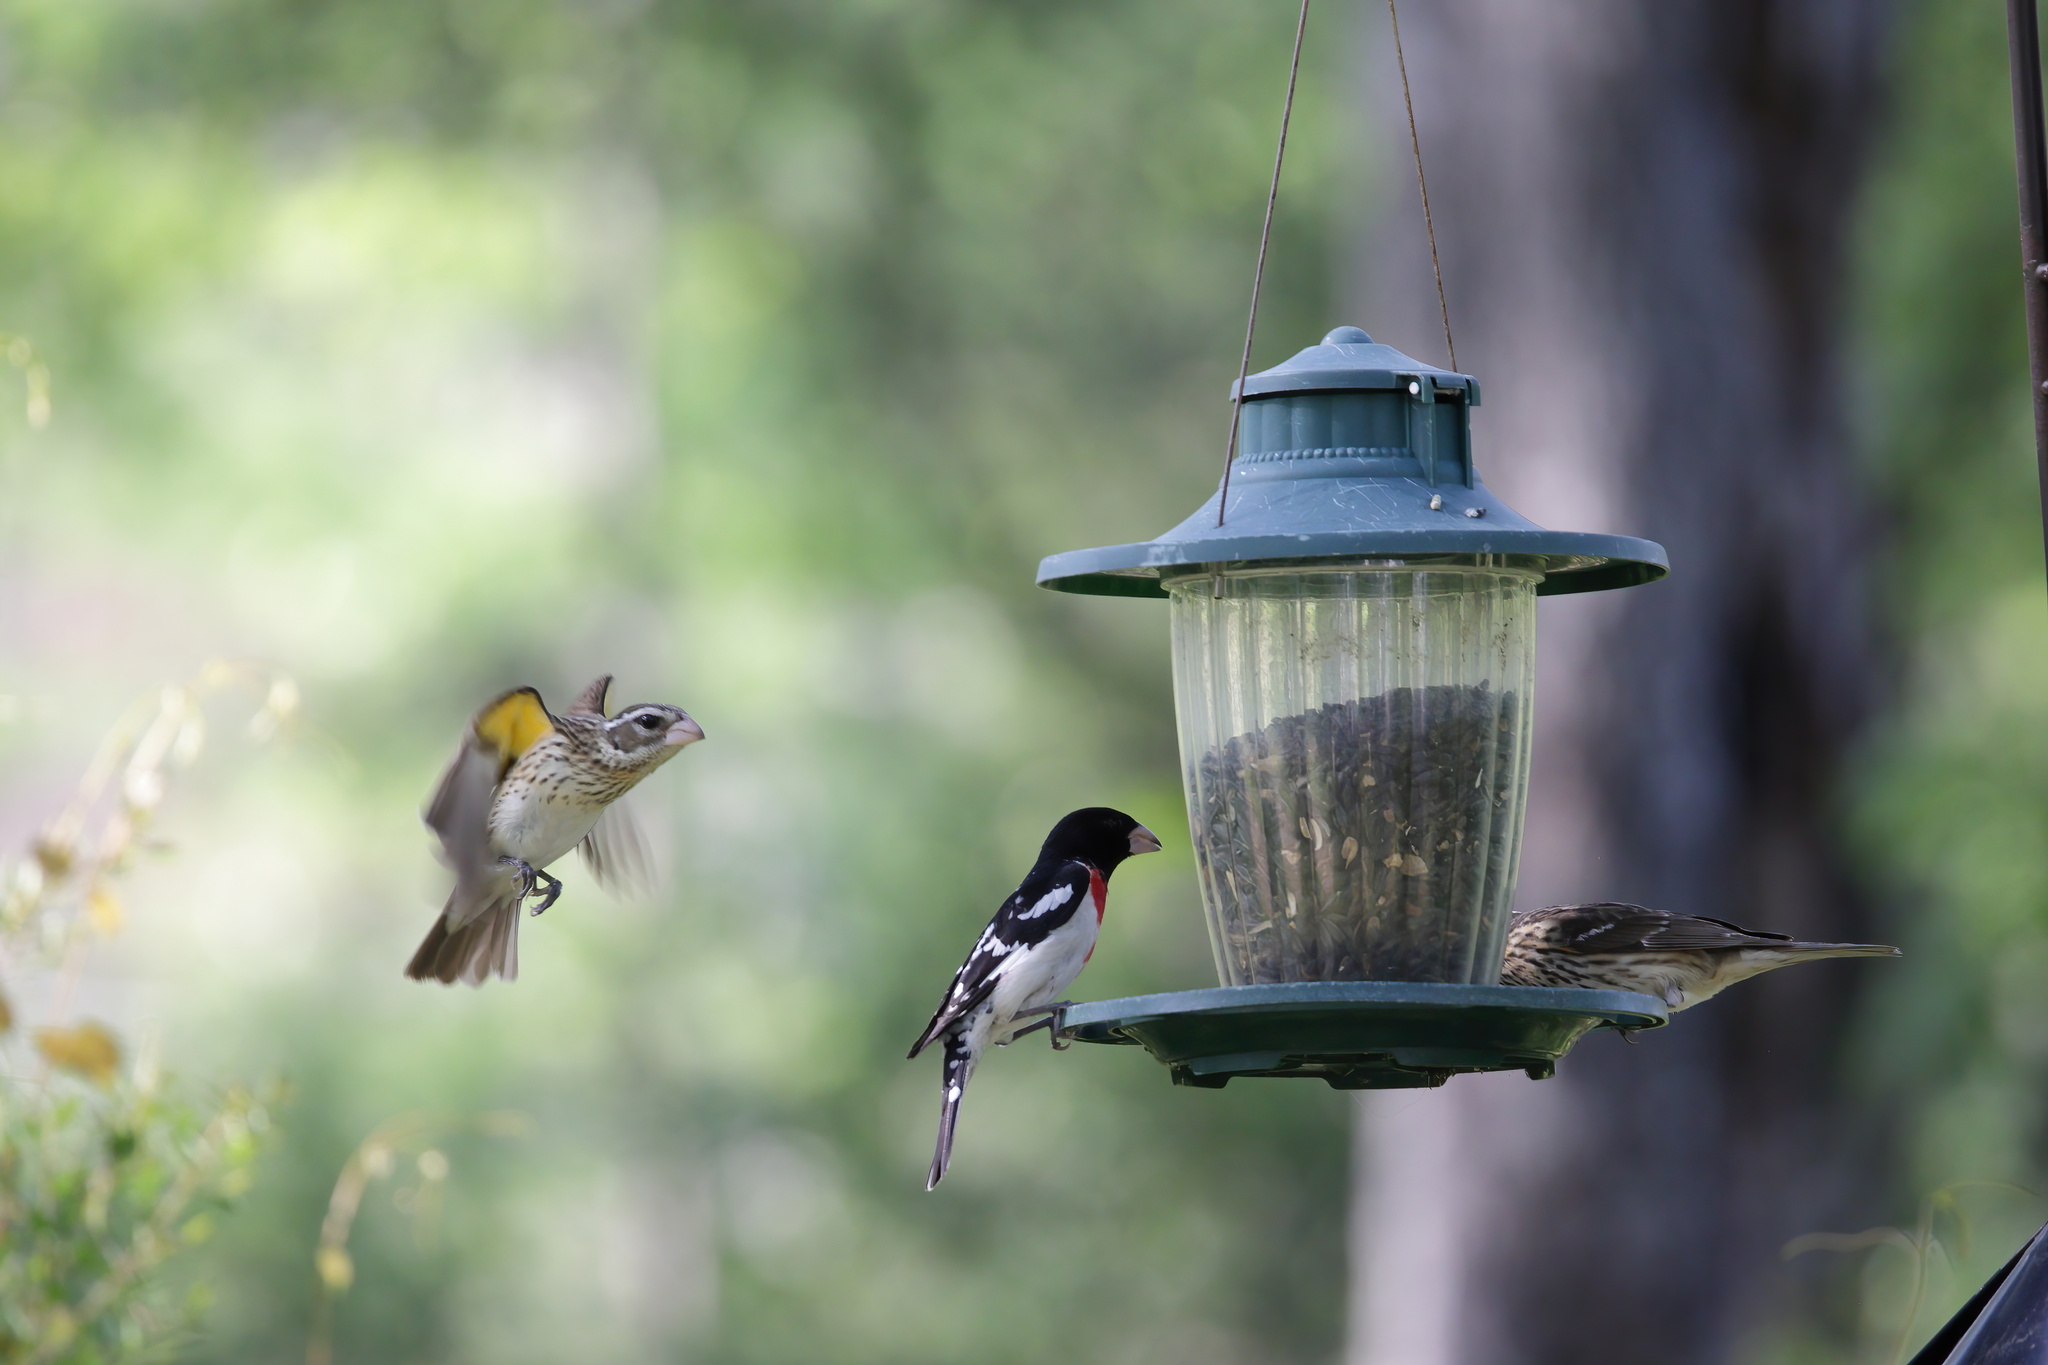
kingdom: Animalia
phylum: Chordata
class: Aves
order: Passeriformes
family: Cardinalidae
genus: Pheucticus
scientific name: Pheucticus ludovicianus
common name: Rose-breasted grosbeak
